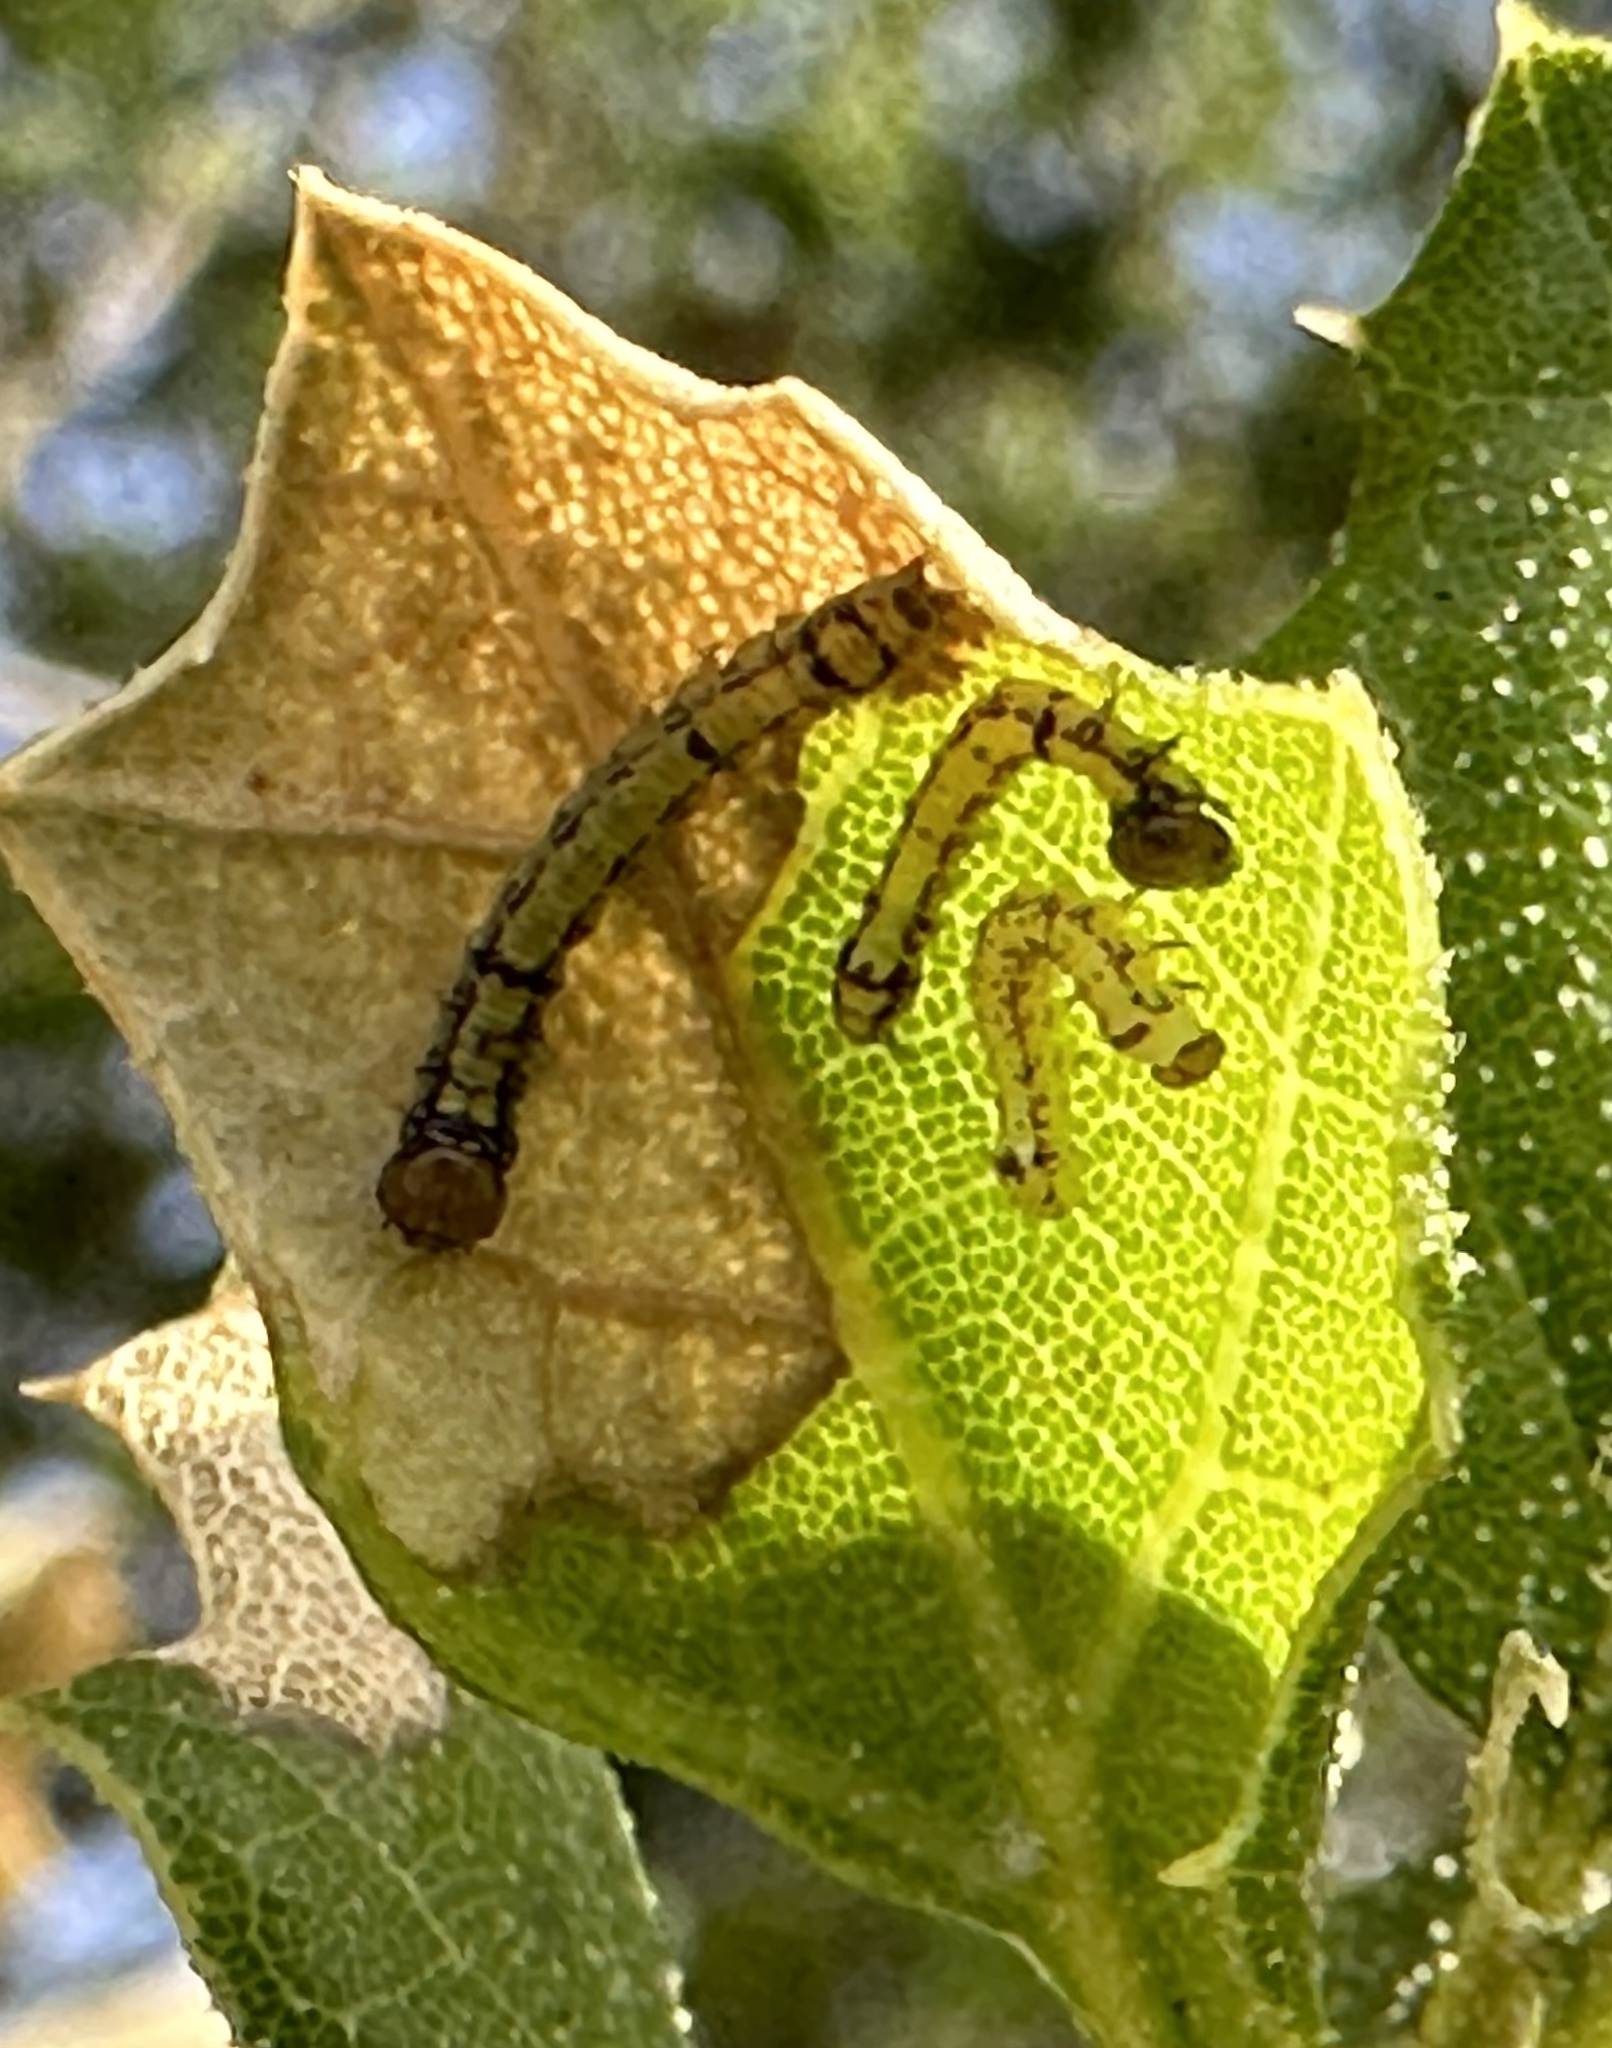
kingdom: Animalia
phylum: Arthropoda
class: Insecta
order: Lepidoptera
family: Notodontidae
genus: Phryganidia
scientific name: Phryganidia californica
